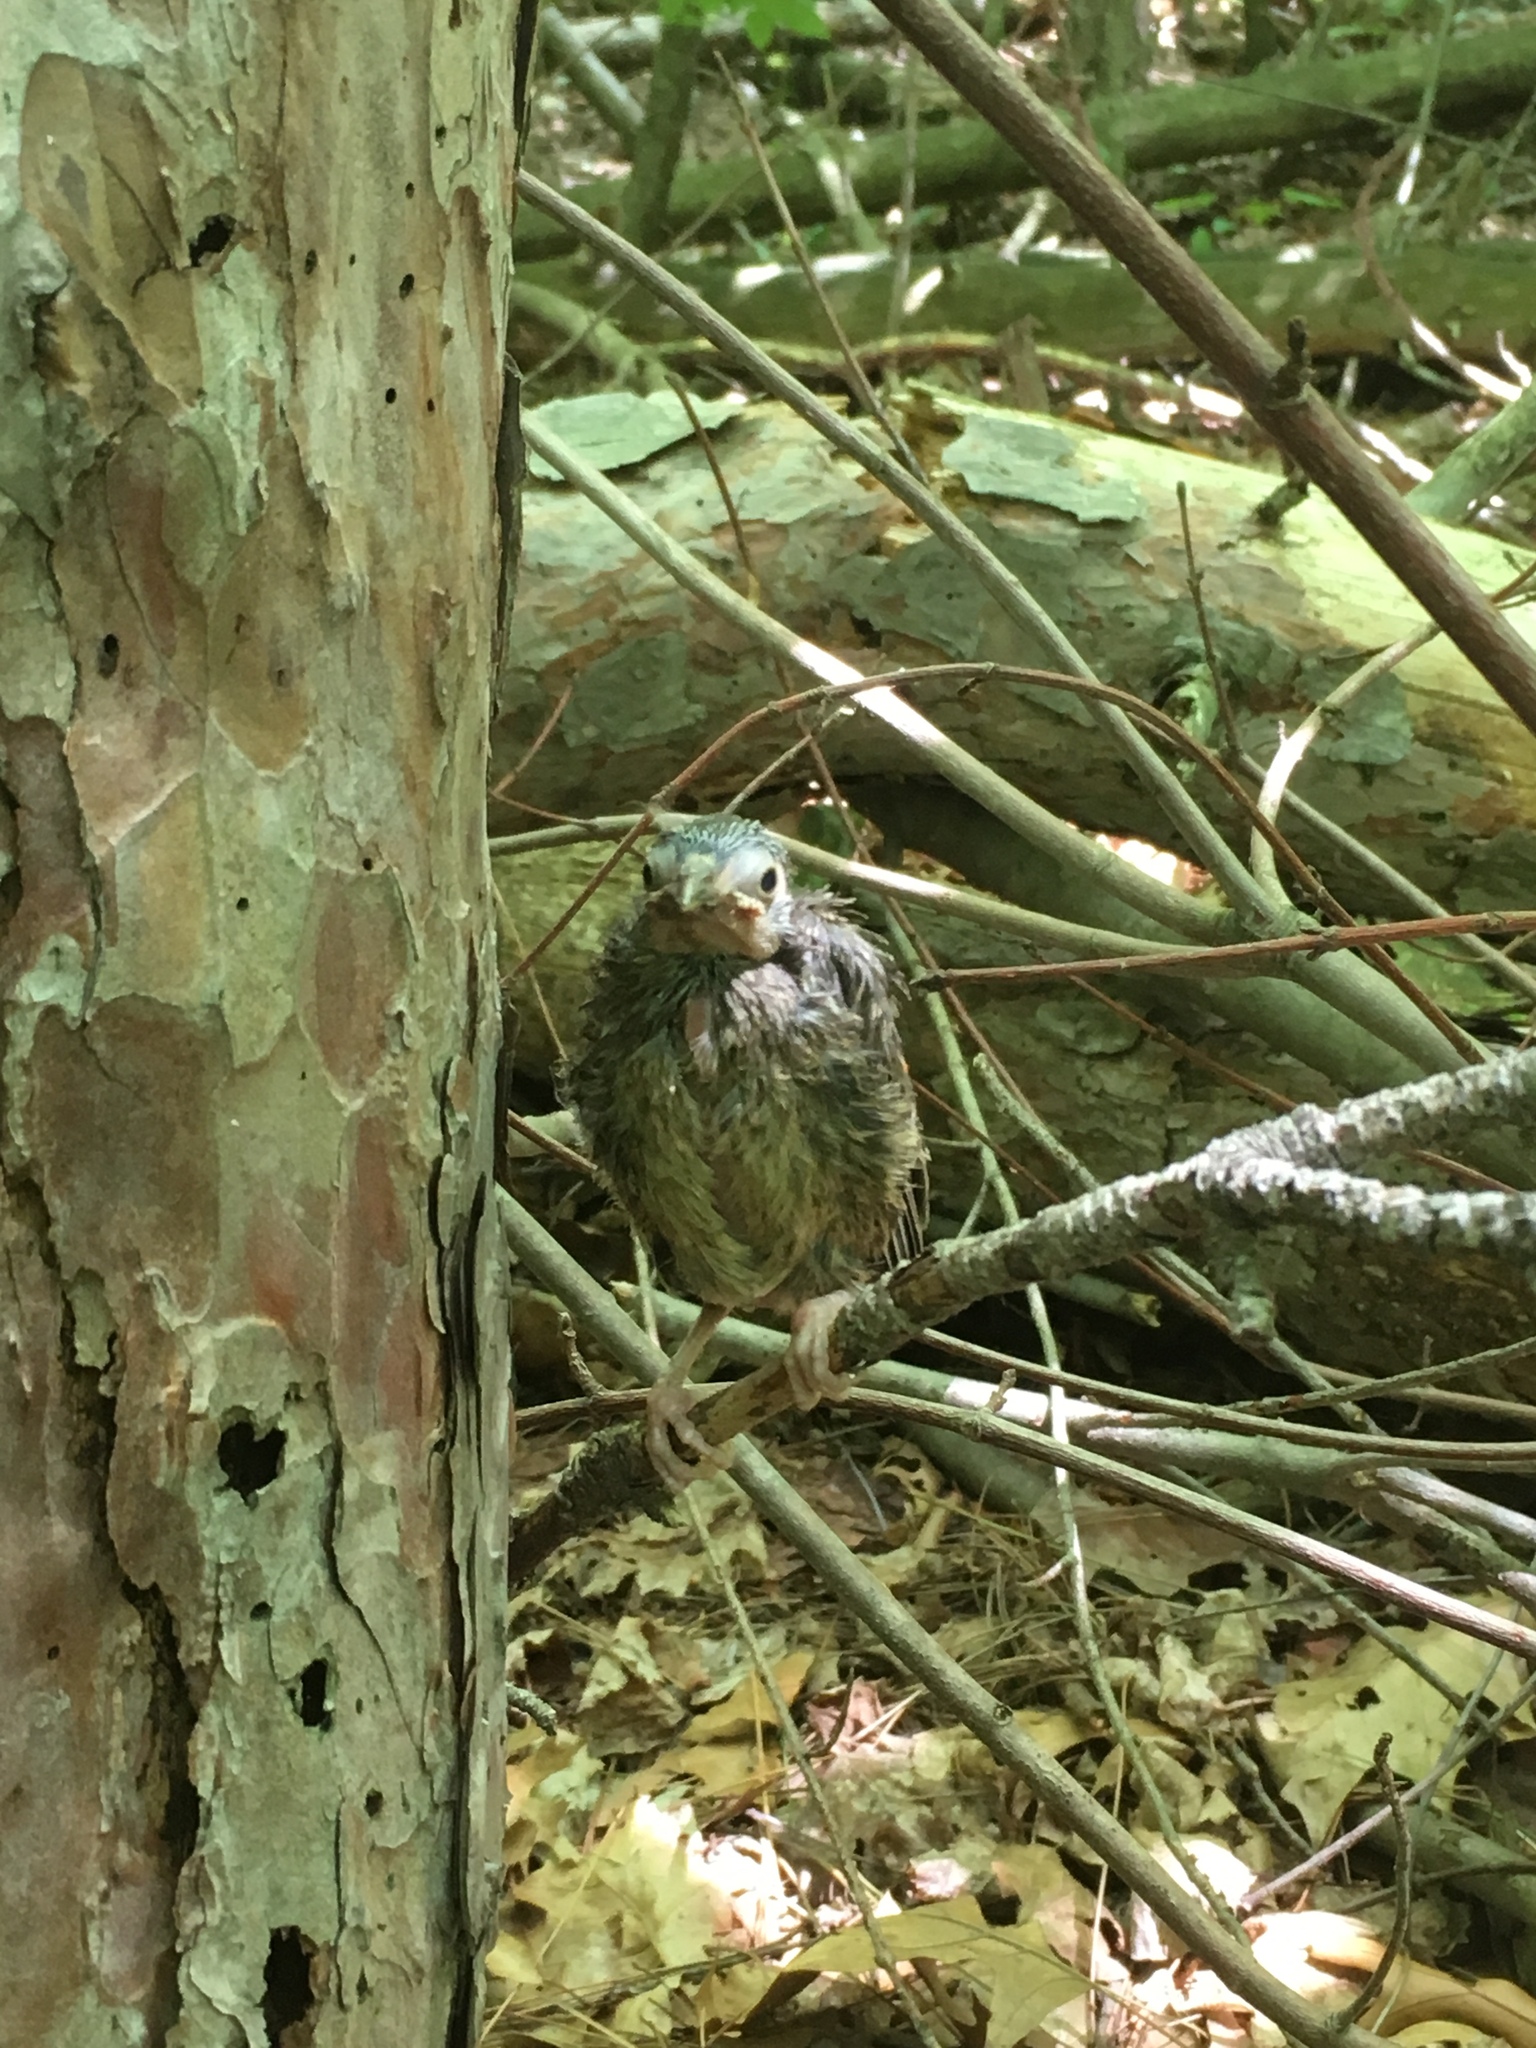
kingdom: Animalia
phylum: Chordata
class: Aves
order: Passeriformes
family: Icteridae
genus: Molothrus
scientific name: Molothrus ater
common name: Brown-headed cowbird
